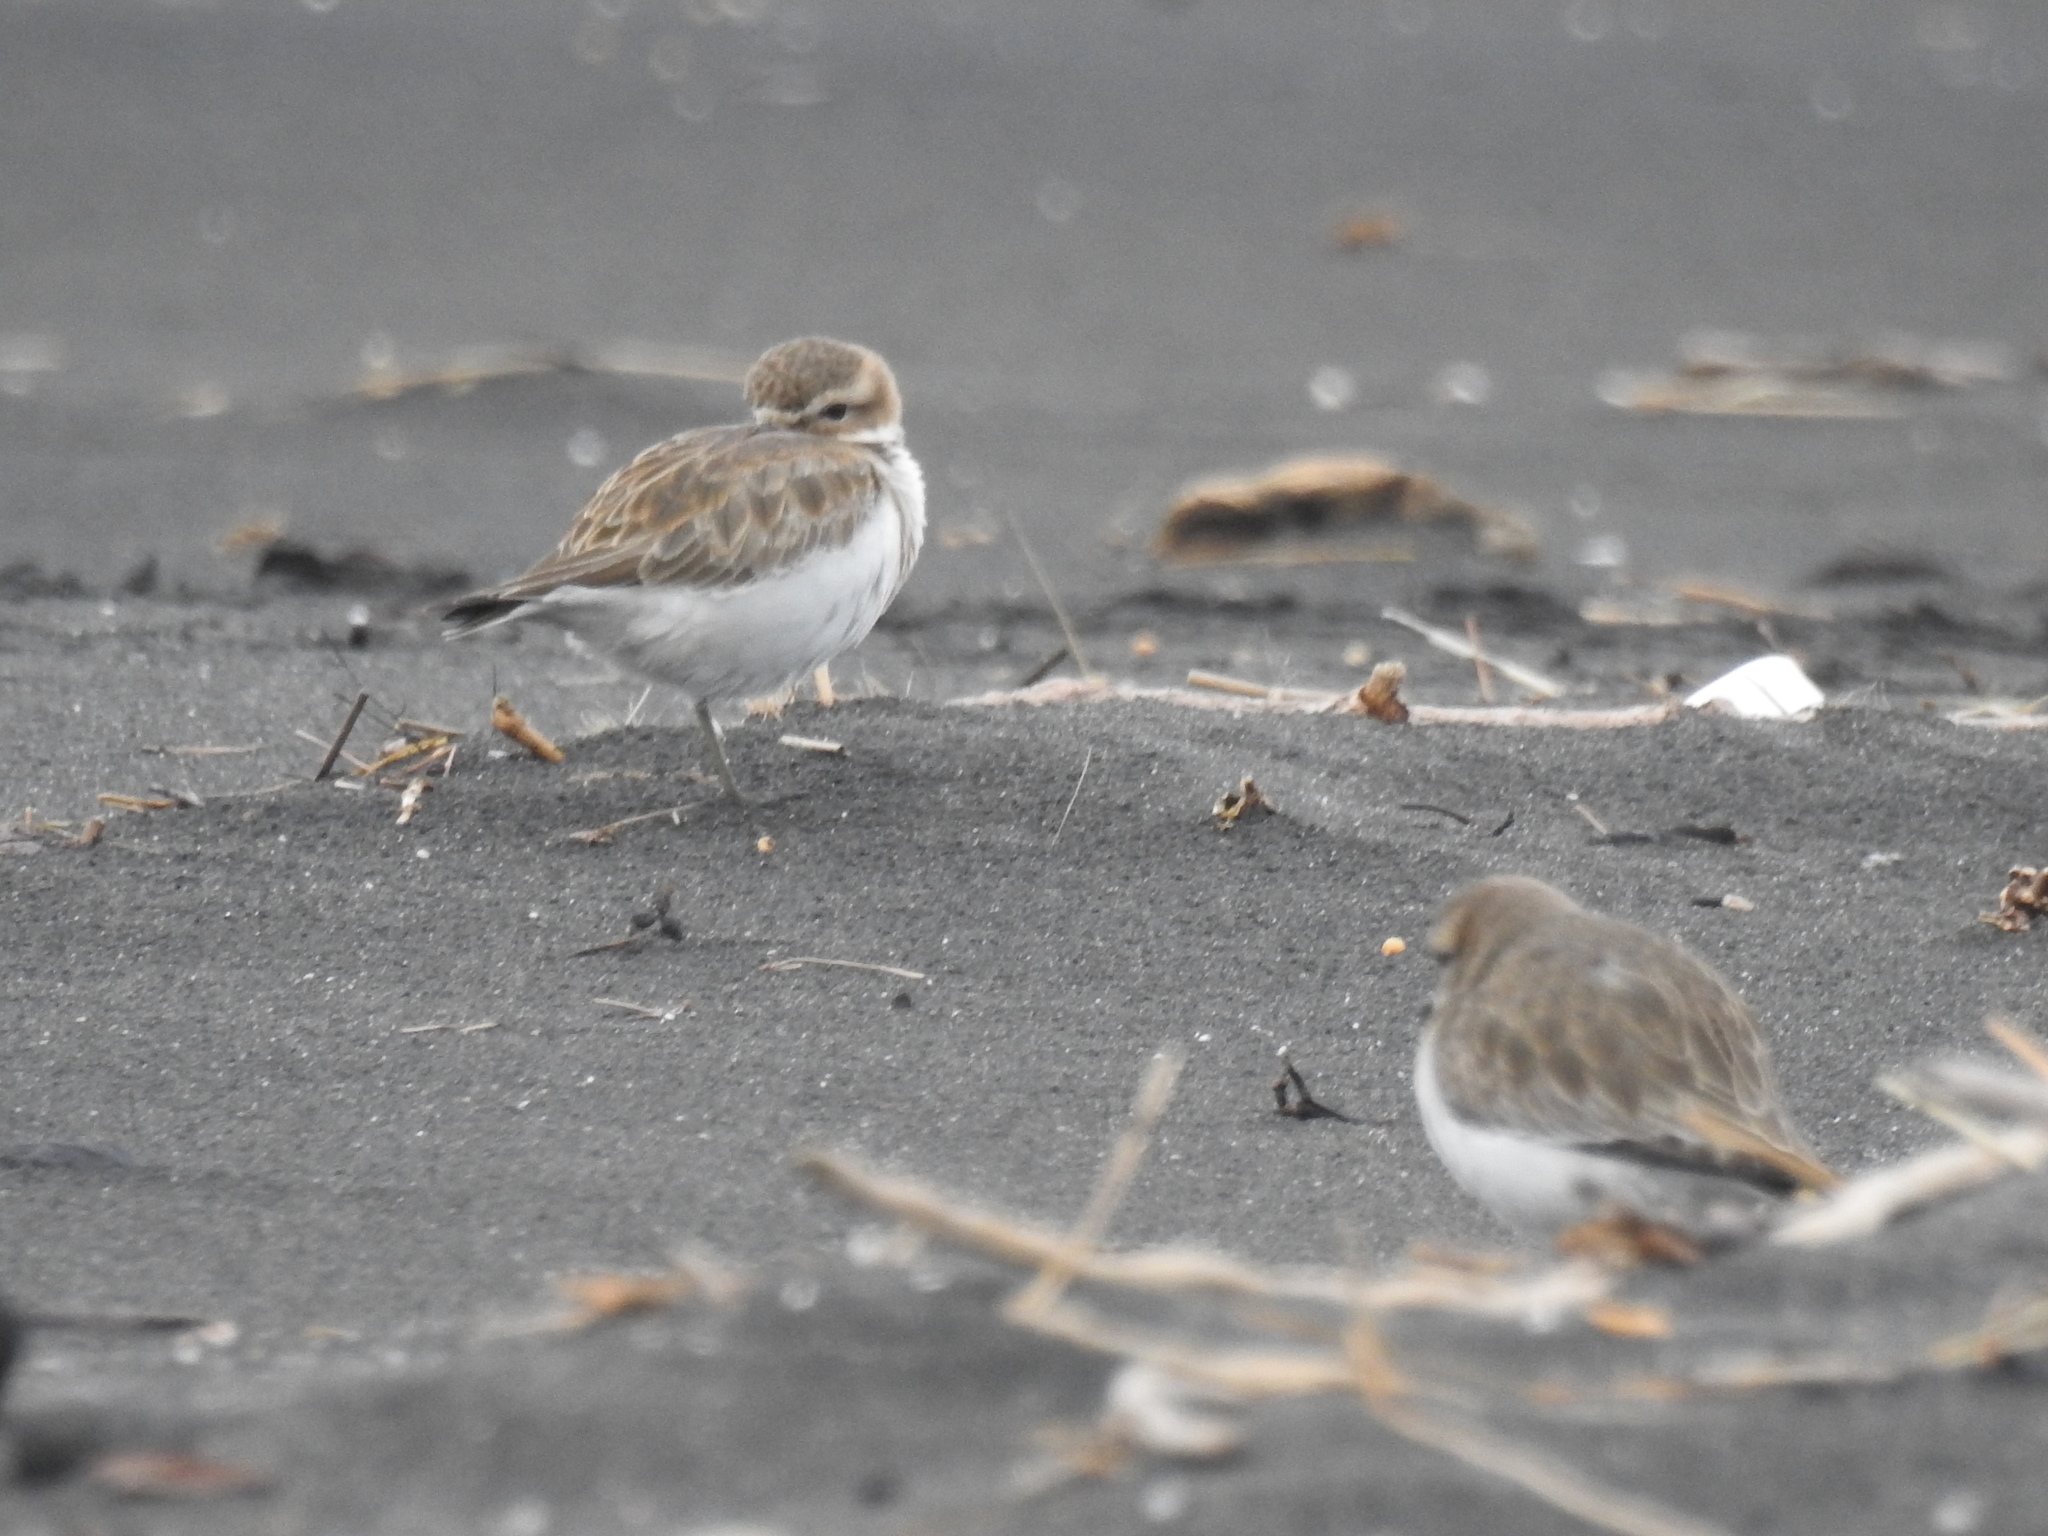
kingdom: Animalia
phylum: Chordata
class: Aves
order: Charadriiformes
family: Charadriidae
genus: Anarhynchus
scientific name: Anarhynchus
